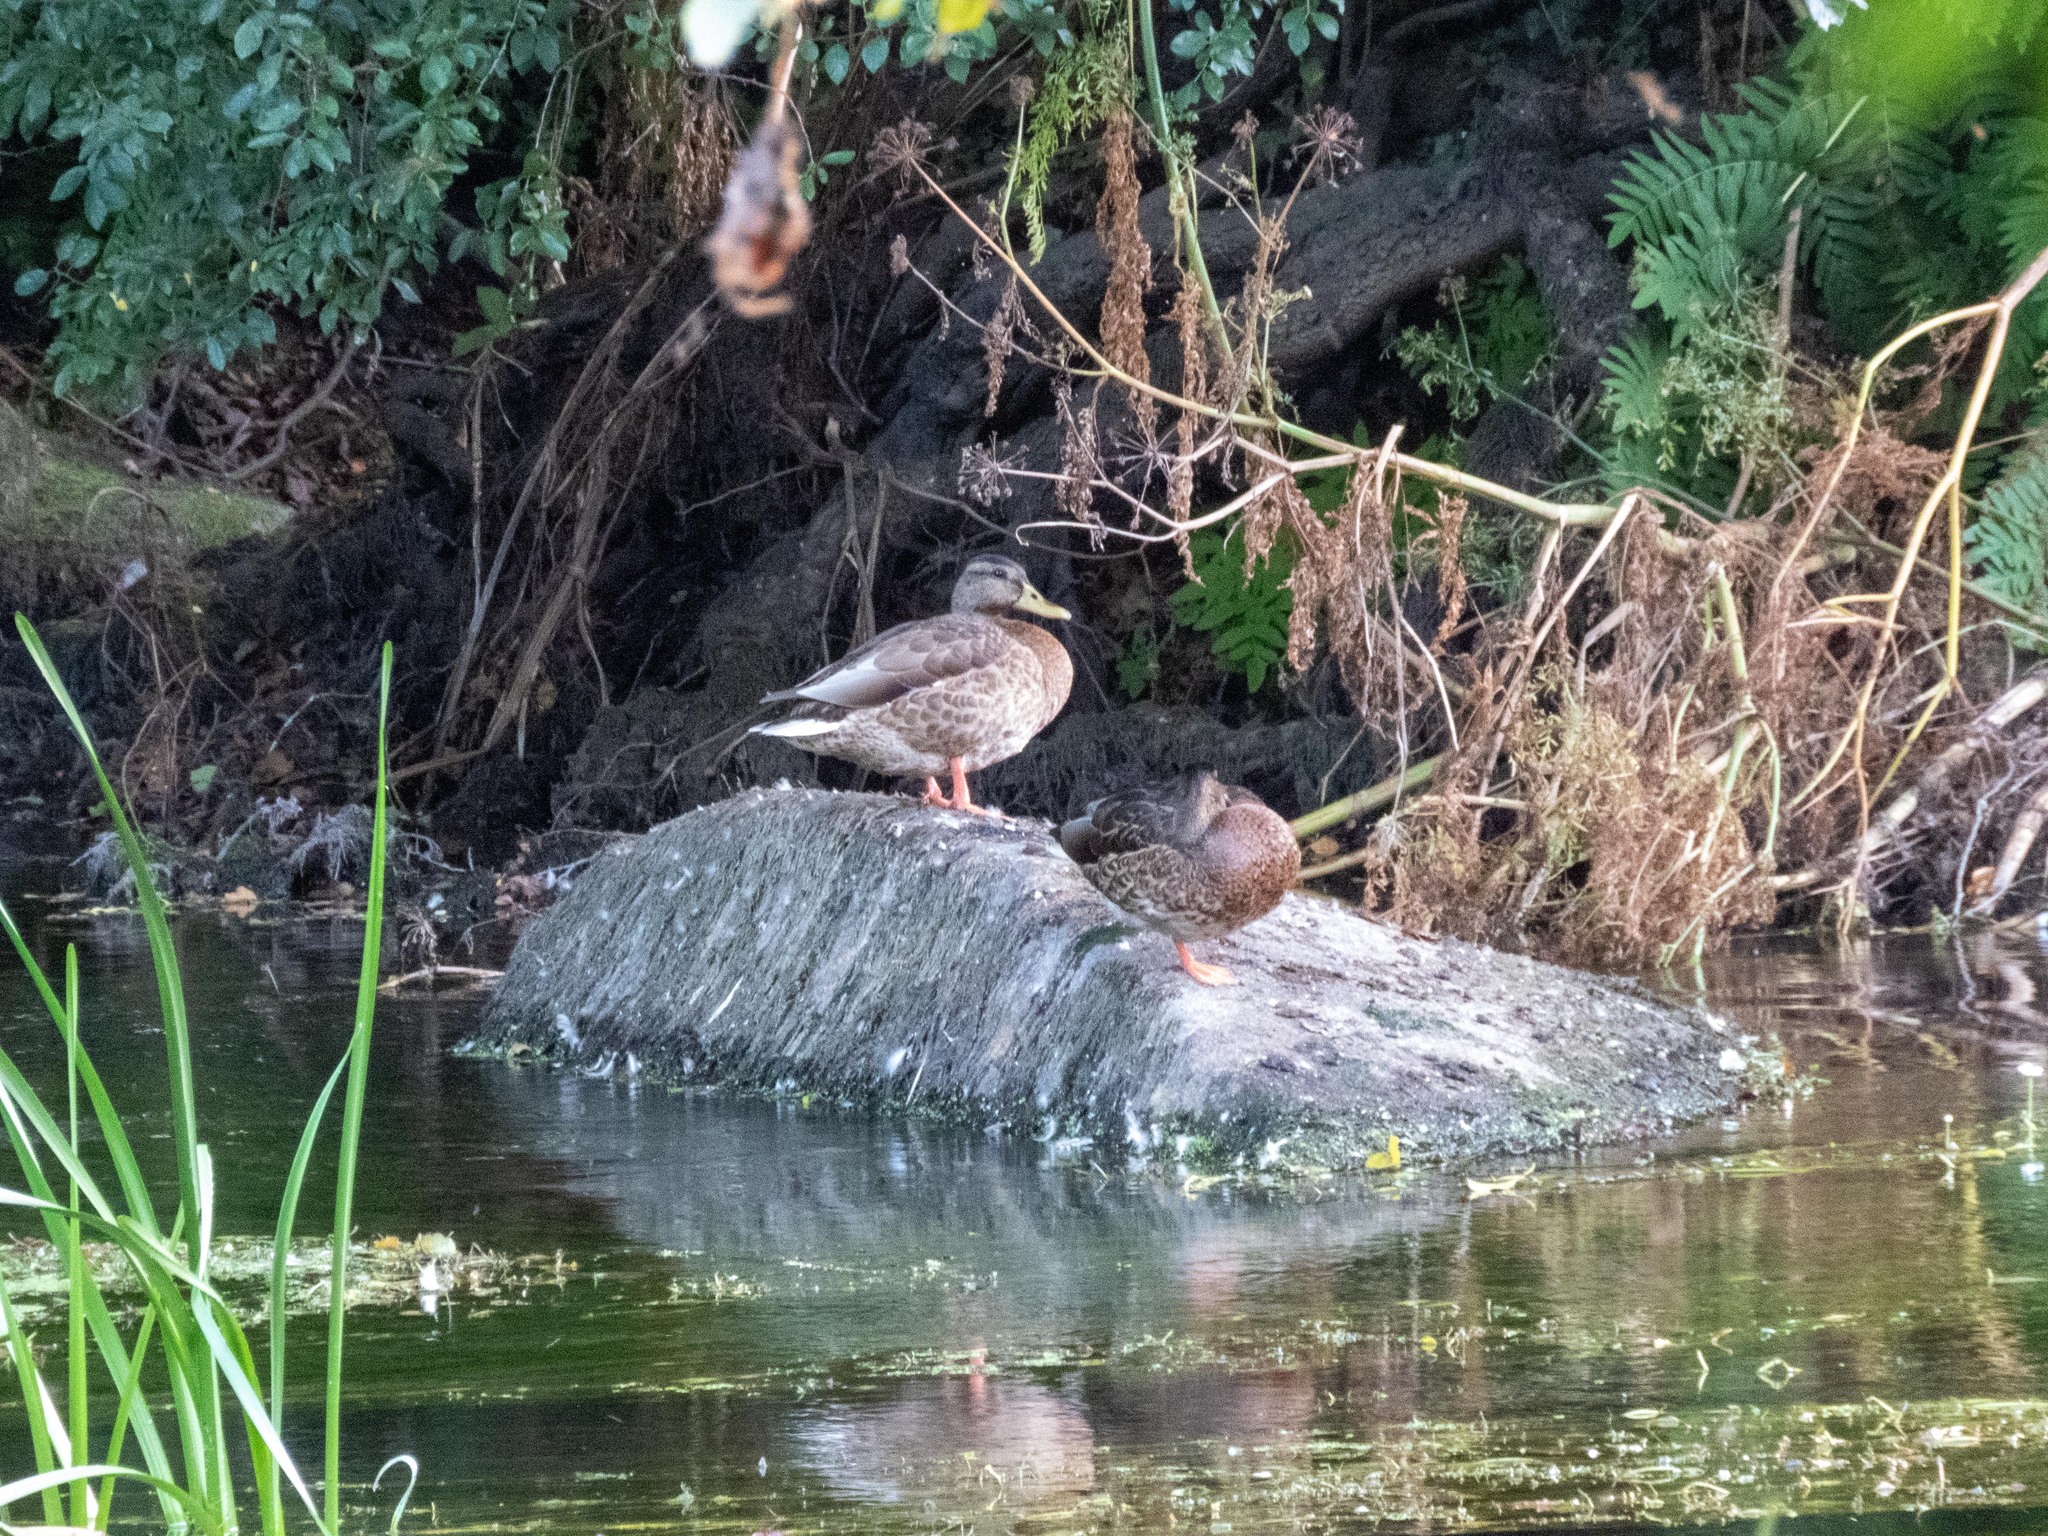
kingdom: Animalia
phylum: Chordata
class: Aves
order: Anseriformes
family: Anatidae
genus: Anas
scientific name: Anas platyrhynchos
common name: Mallard
